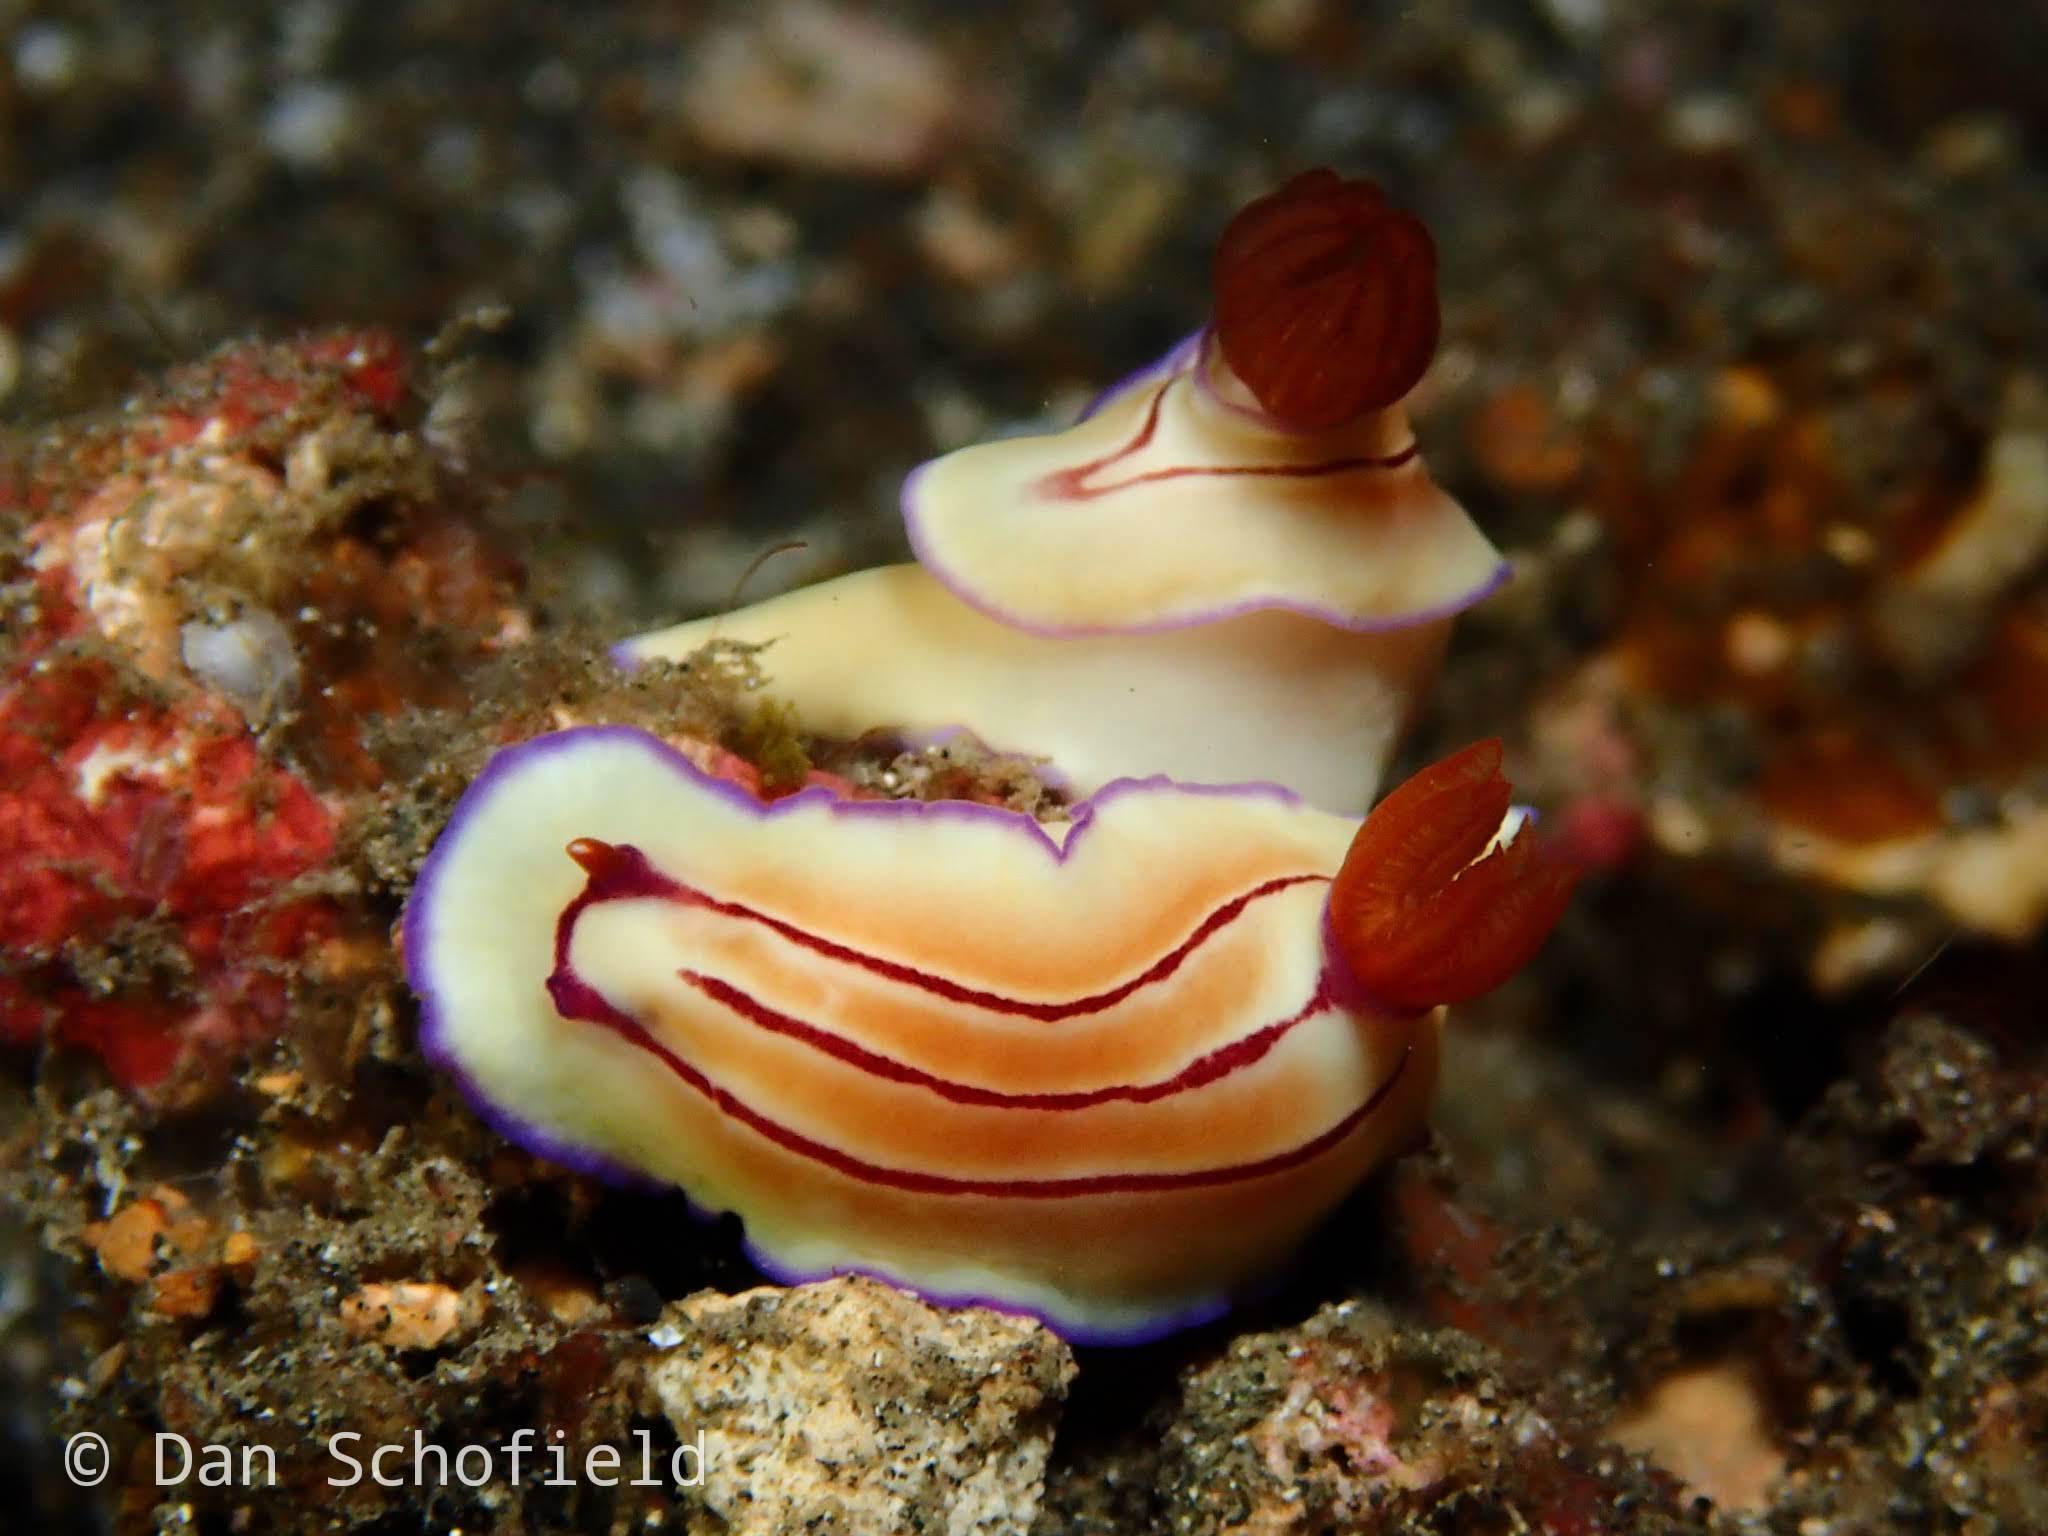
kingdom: Animalia
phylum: Mollusca
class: Gastropoda
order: Nudibranchia
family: Chromodorididae
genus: Hypselodoris
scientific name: Hypselodoris emma
